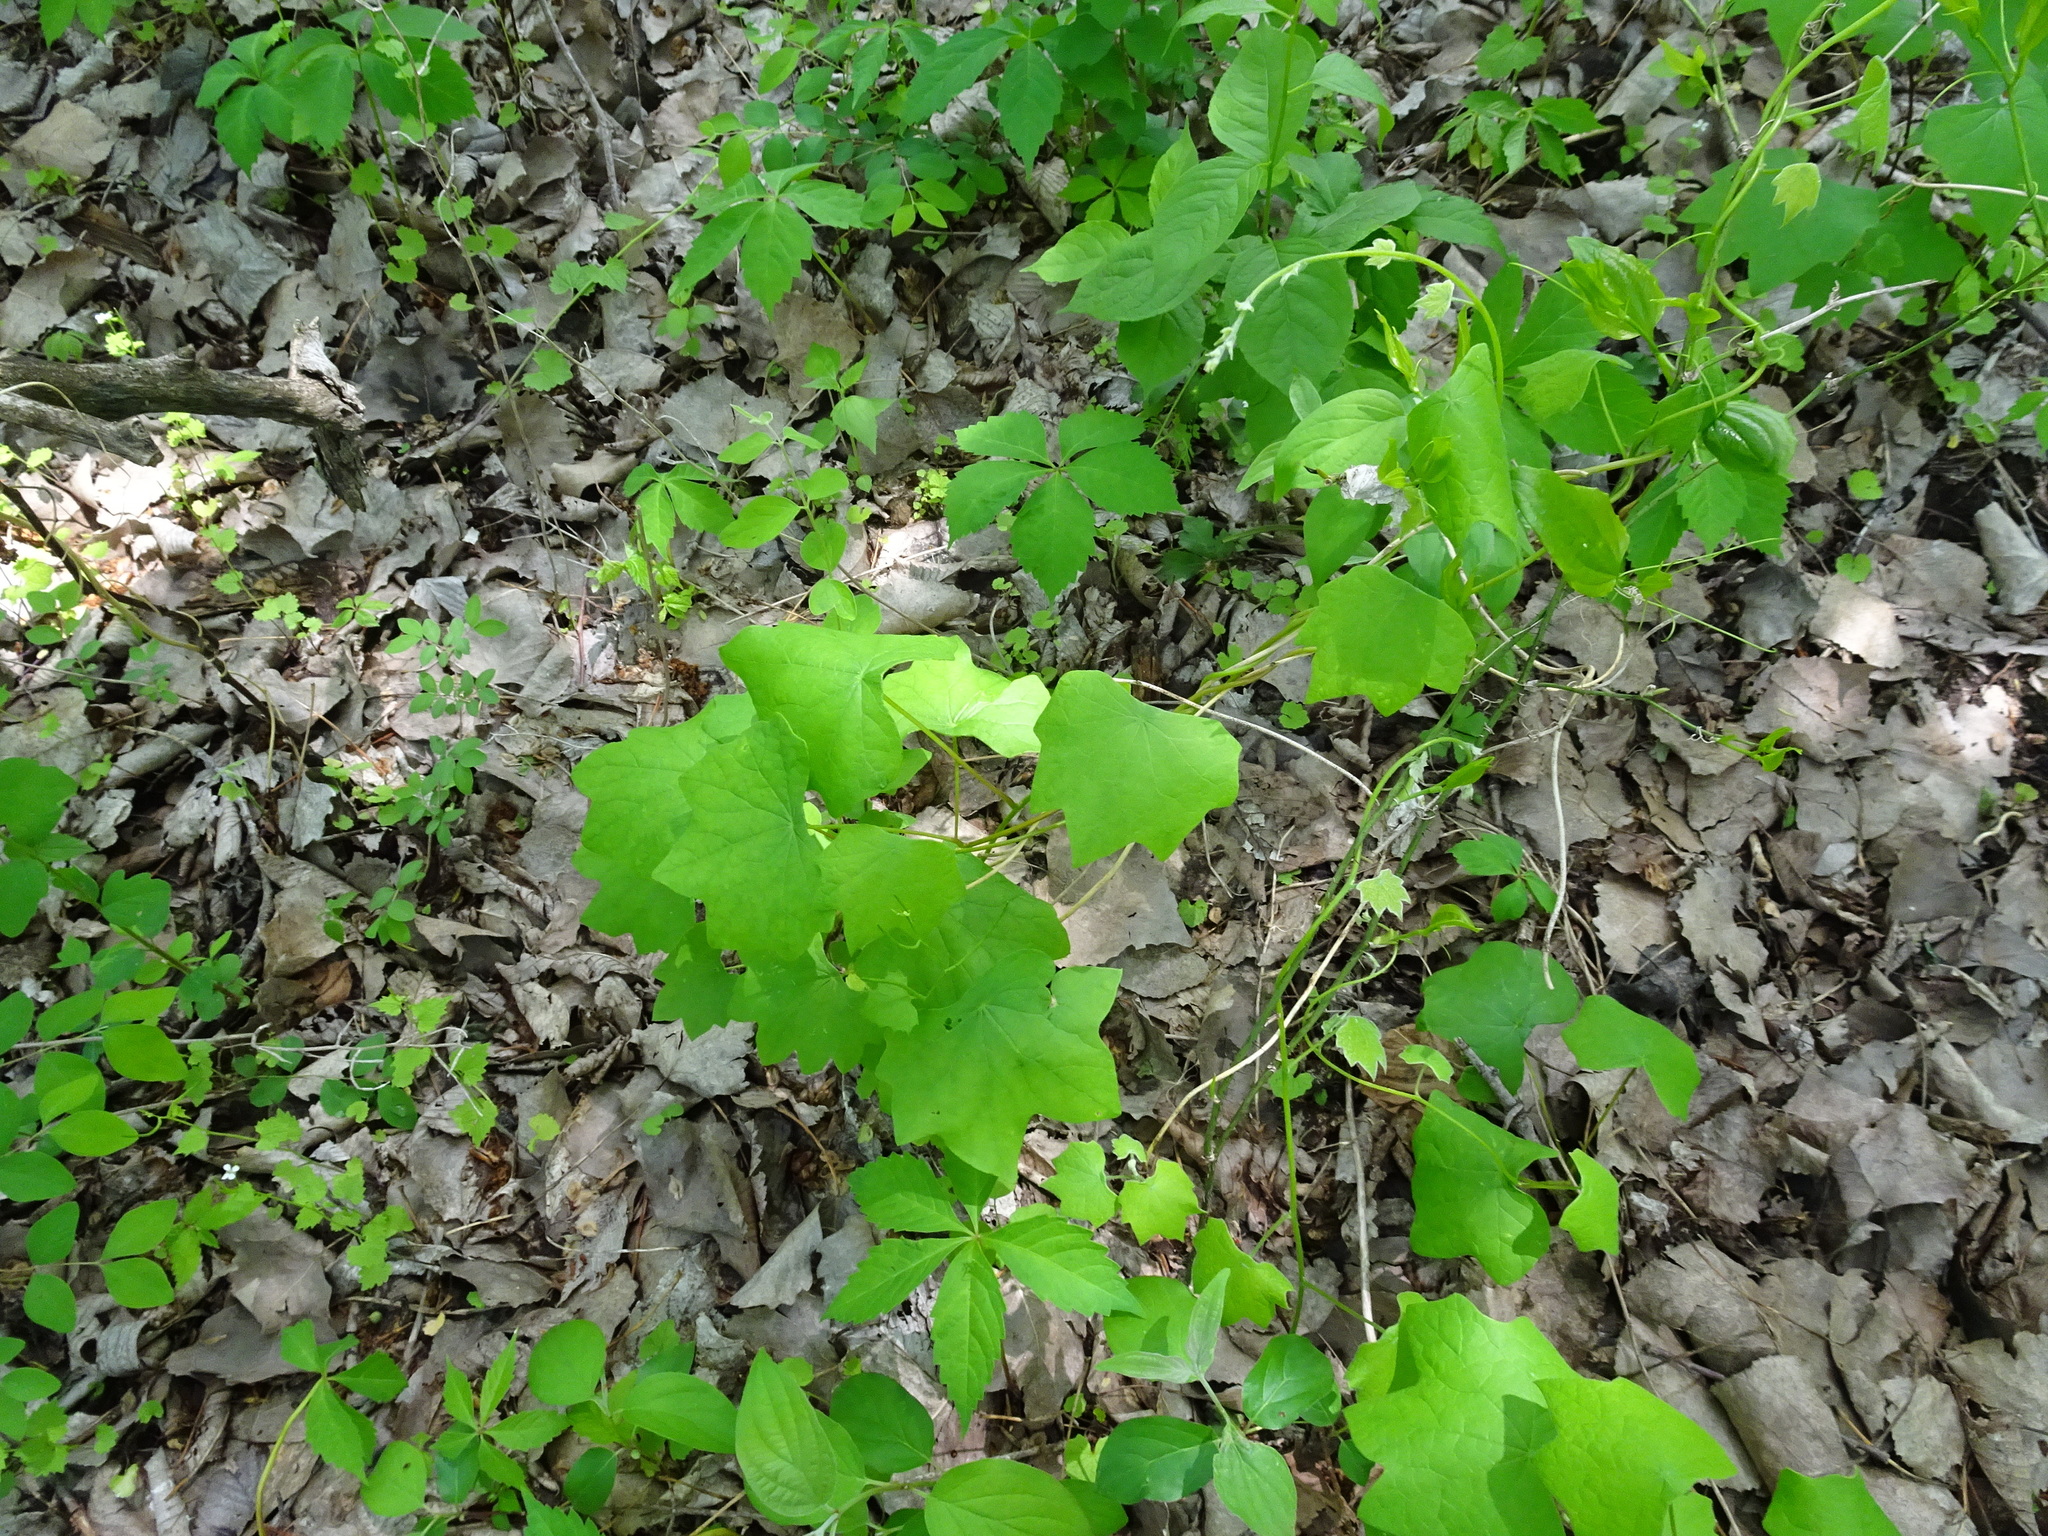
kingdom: Plantae
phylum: Tracheophyta
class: Magnoliopsida
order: Ranunculales
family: Menispermaceae
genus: Menispermum
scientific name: Menispermum canadense
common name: Moonseed
